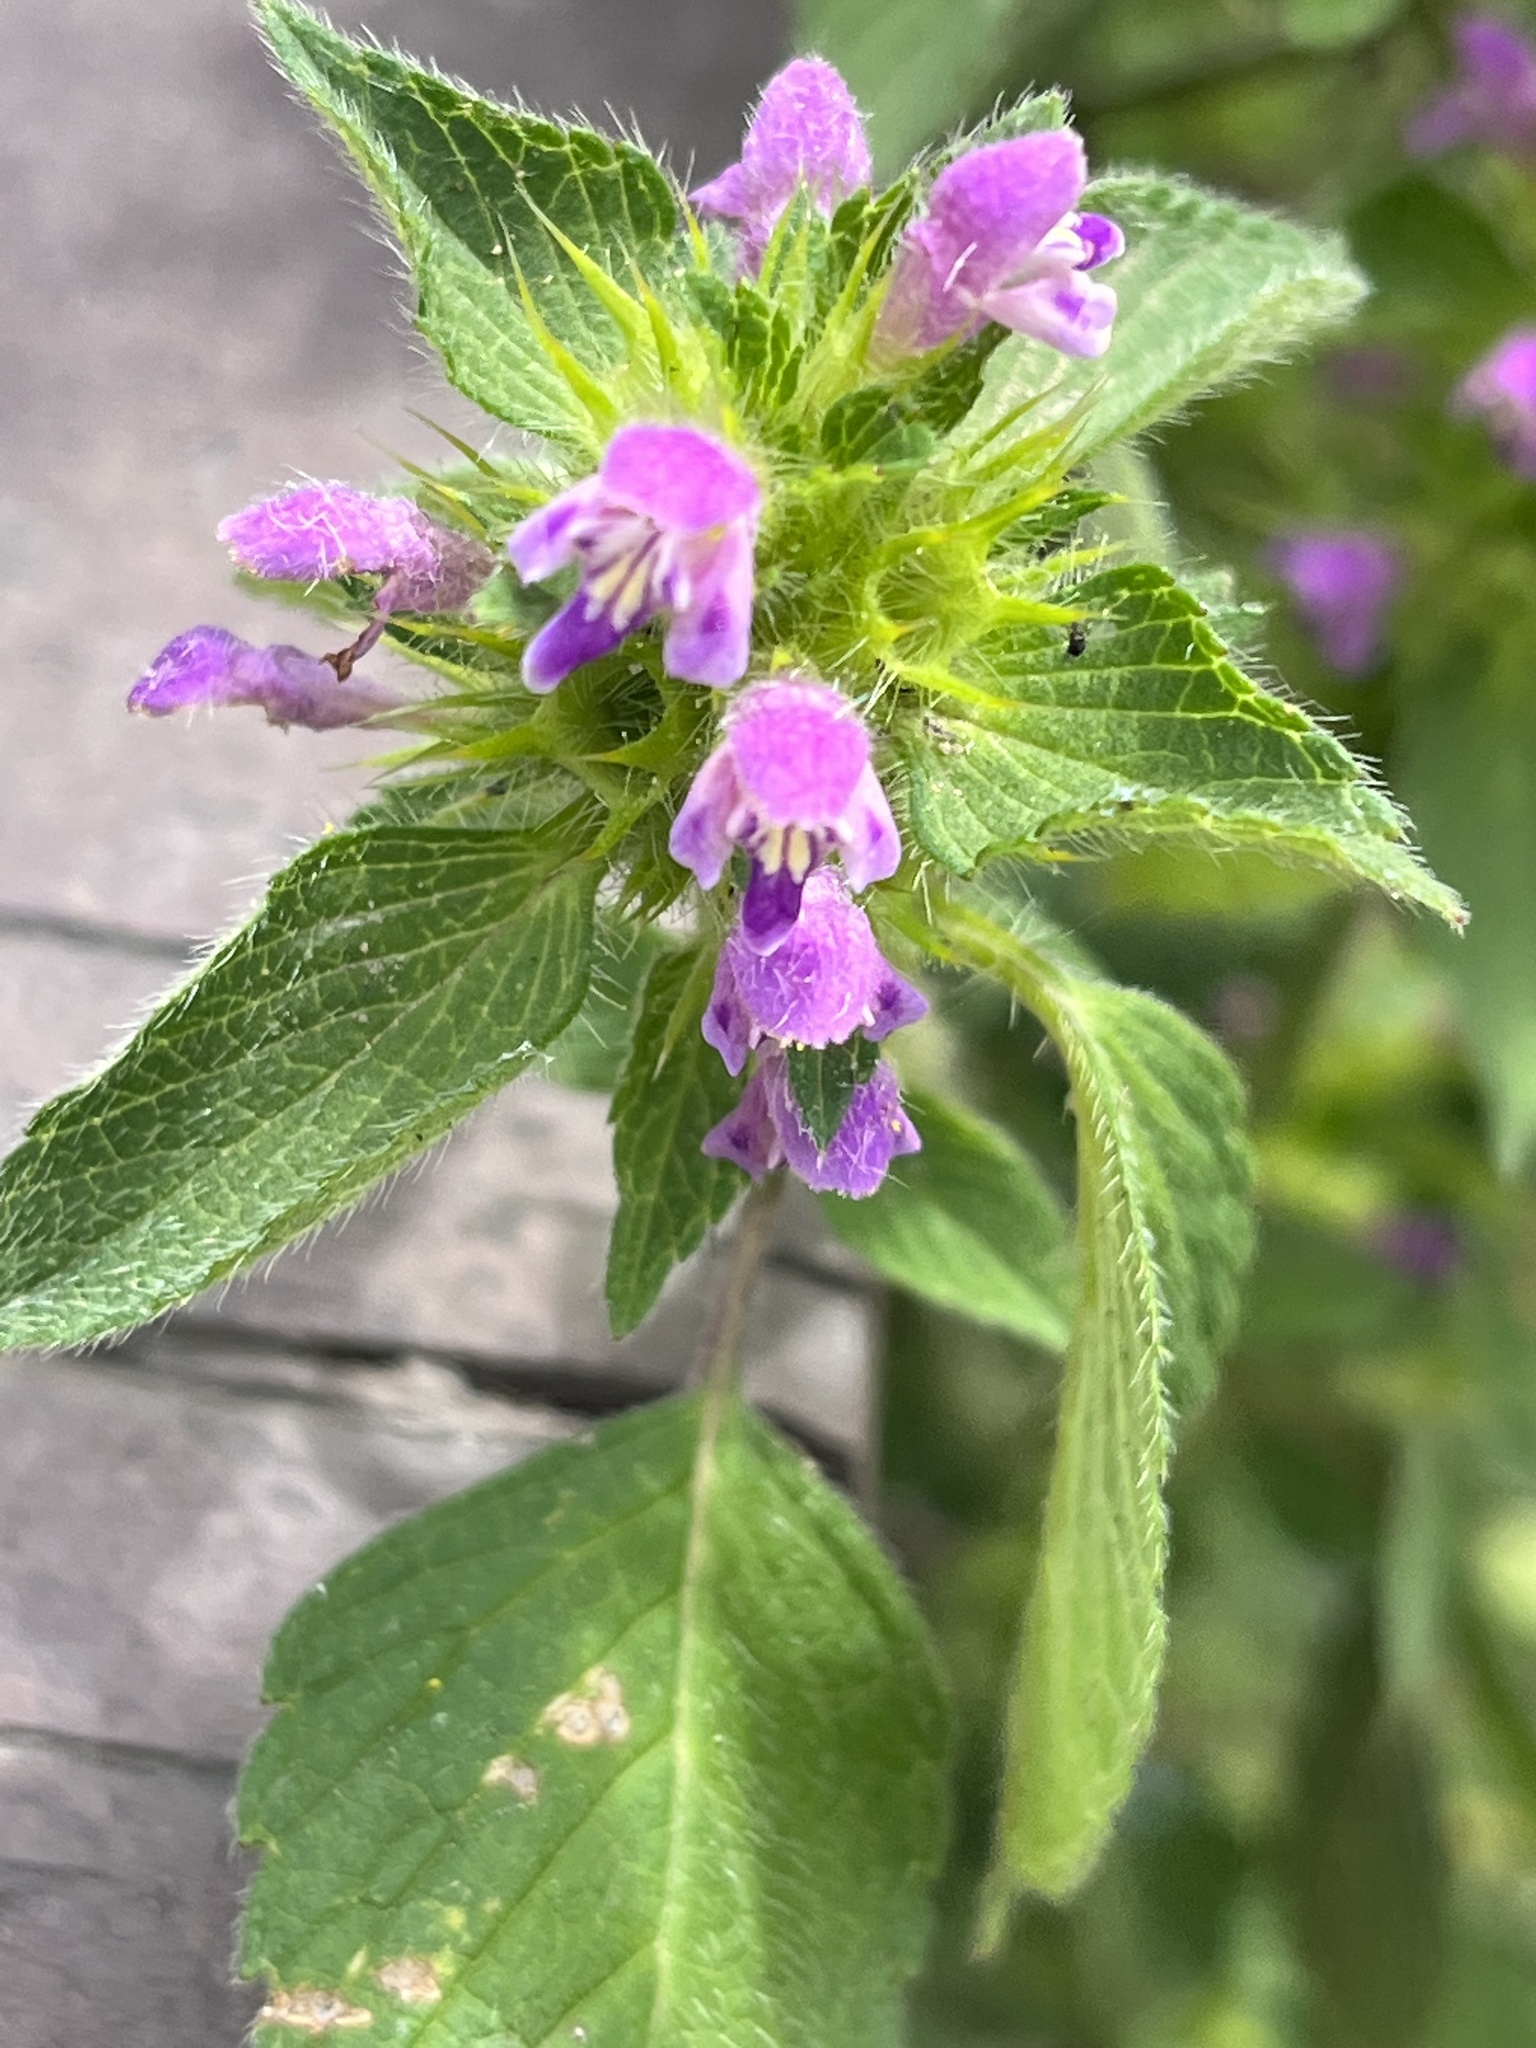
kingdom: Plantae
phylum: Tracheophyta
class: Magnoliopsida
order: Lamiales
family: Lamiaceae
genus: Galeopsis
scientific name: Galeopsis bifida
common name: Bifid hemp-nettle
